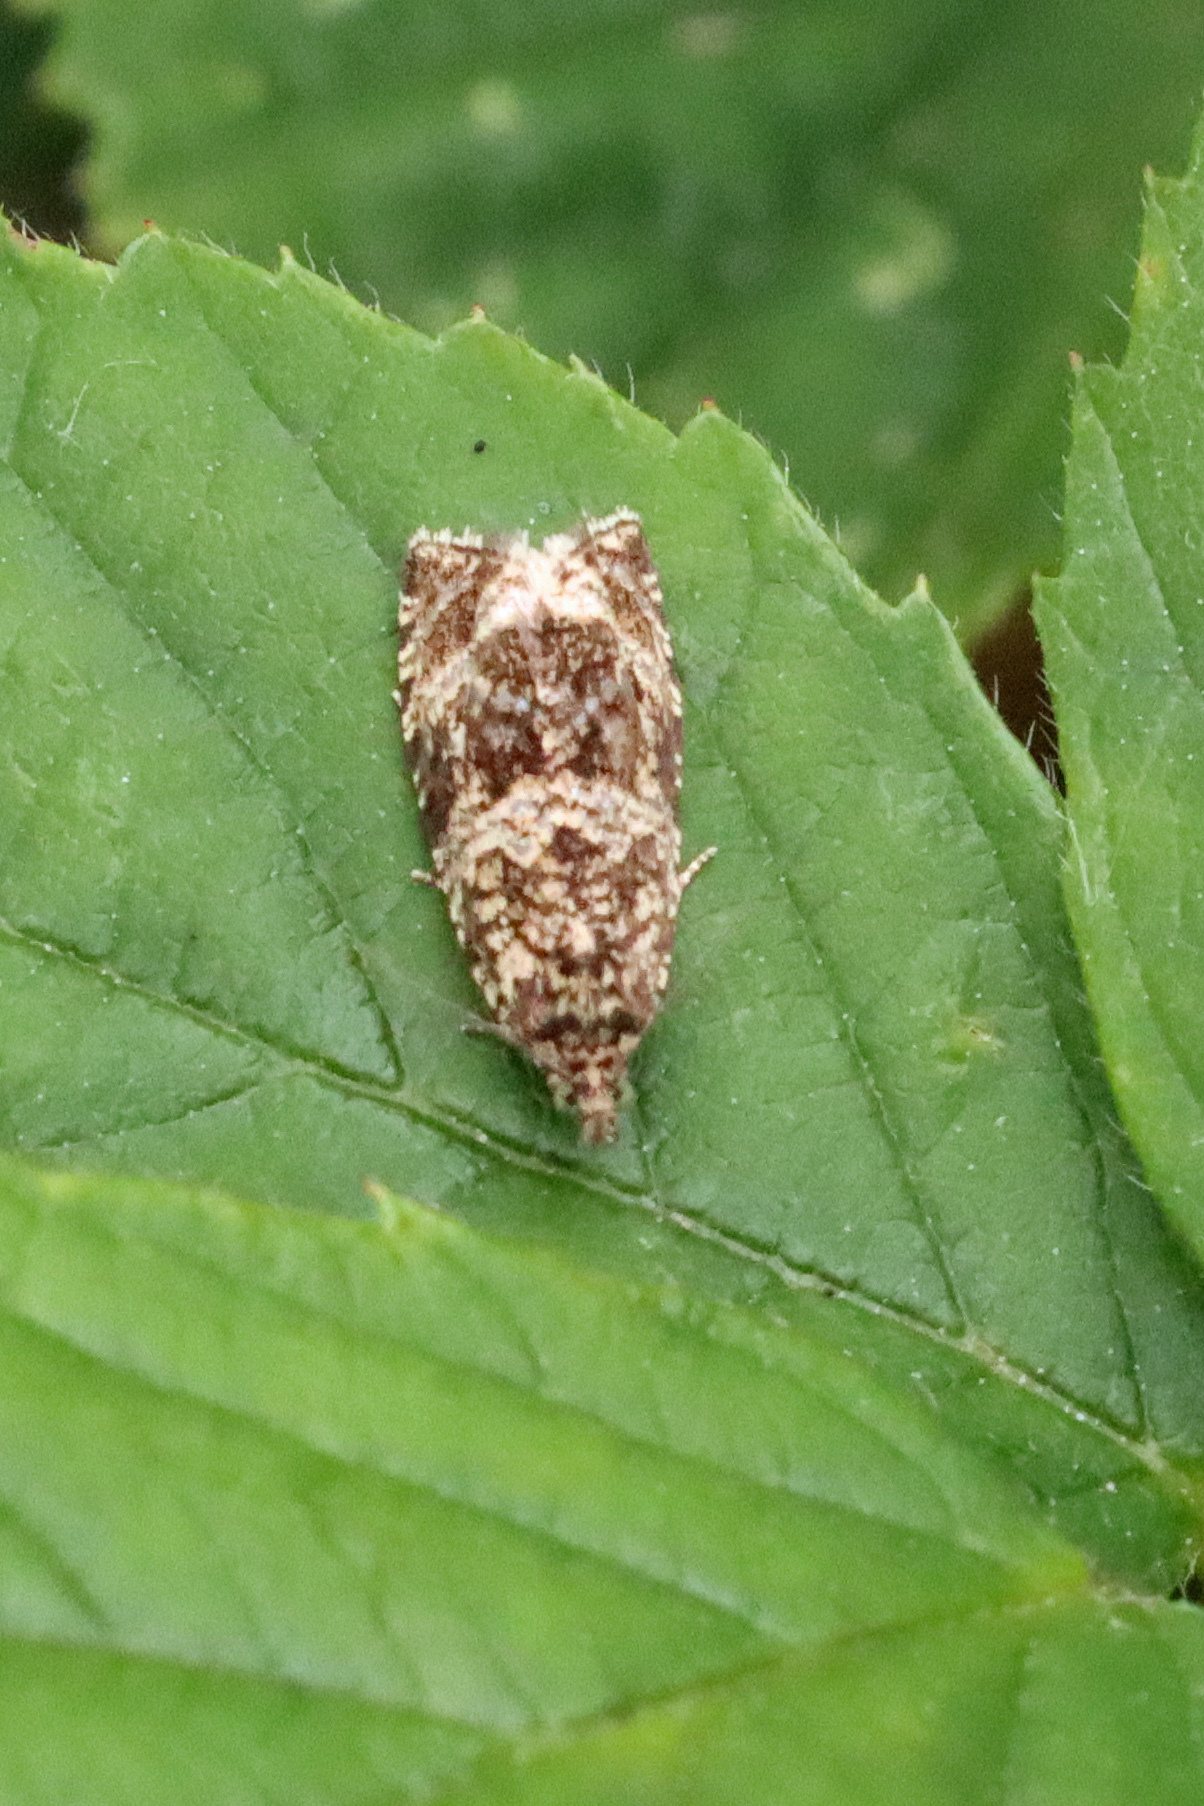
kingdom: Animalia
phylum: Arthropoda
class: Insecta
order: Lepidoptera
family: Tortricidae
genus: Syricoris
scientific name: Syricoris lacunana
